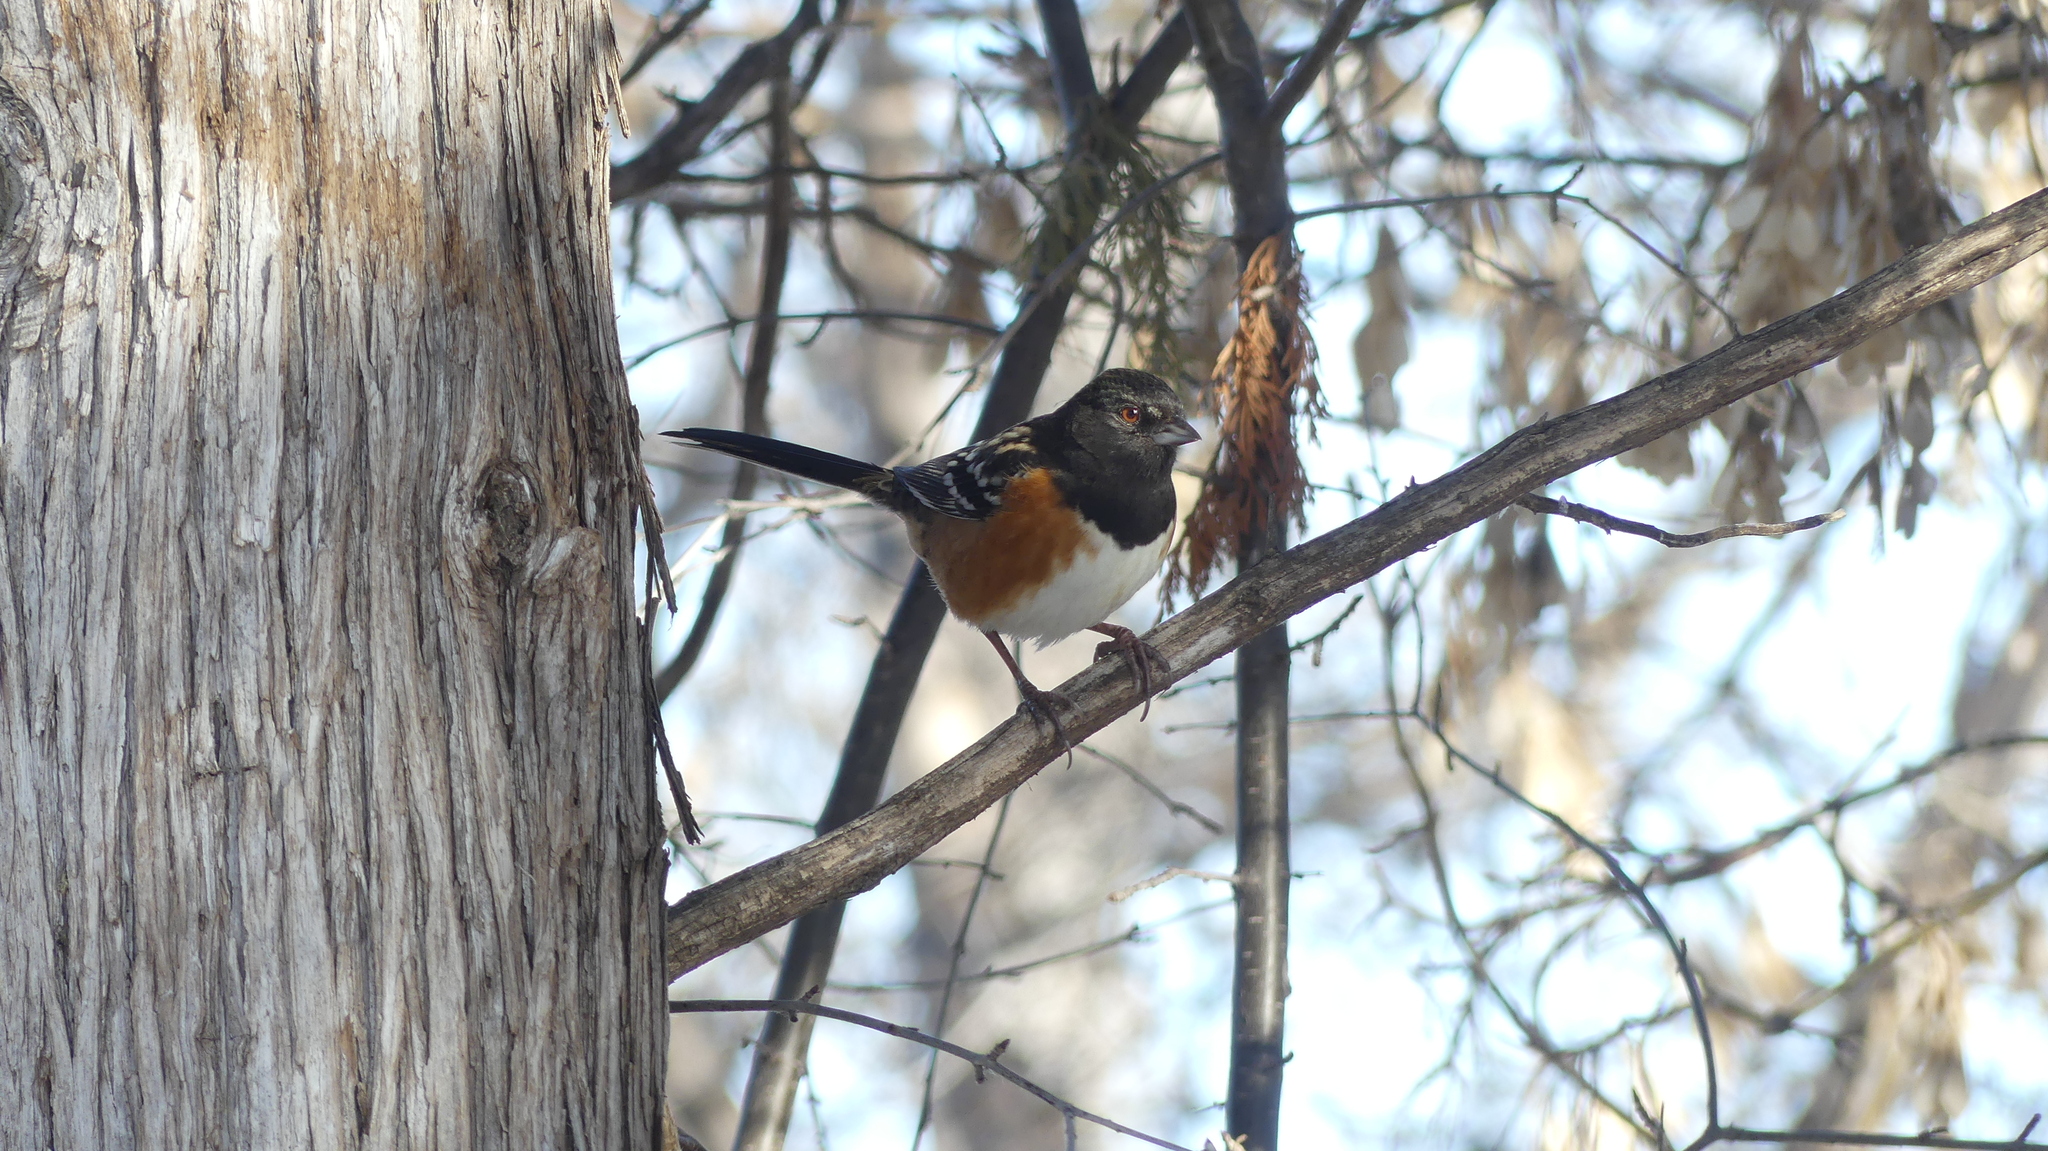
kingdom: Animalia
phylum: Chordata
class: Aves
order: Passeriformes
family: Passerellidae
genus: Pipilo
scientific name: Pipilo maculatus
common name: Spotted towhee
